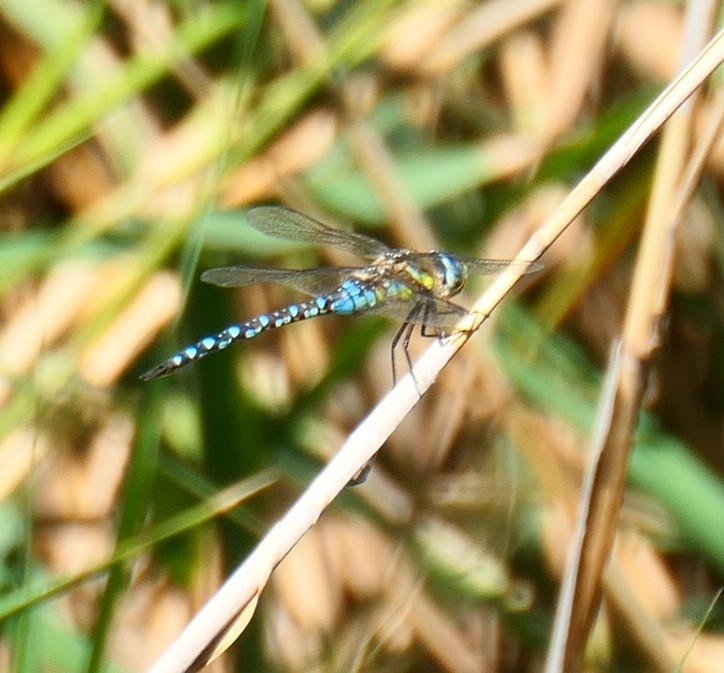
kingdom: Animalia
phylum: Arthropoda
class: Insecta
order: Odonata
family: Aeshnidae
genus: Aeshna
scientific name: Aeshna mixta
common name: Migrant hawker
